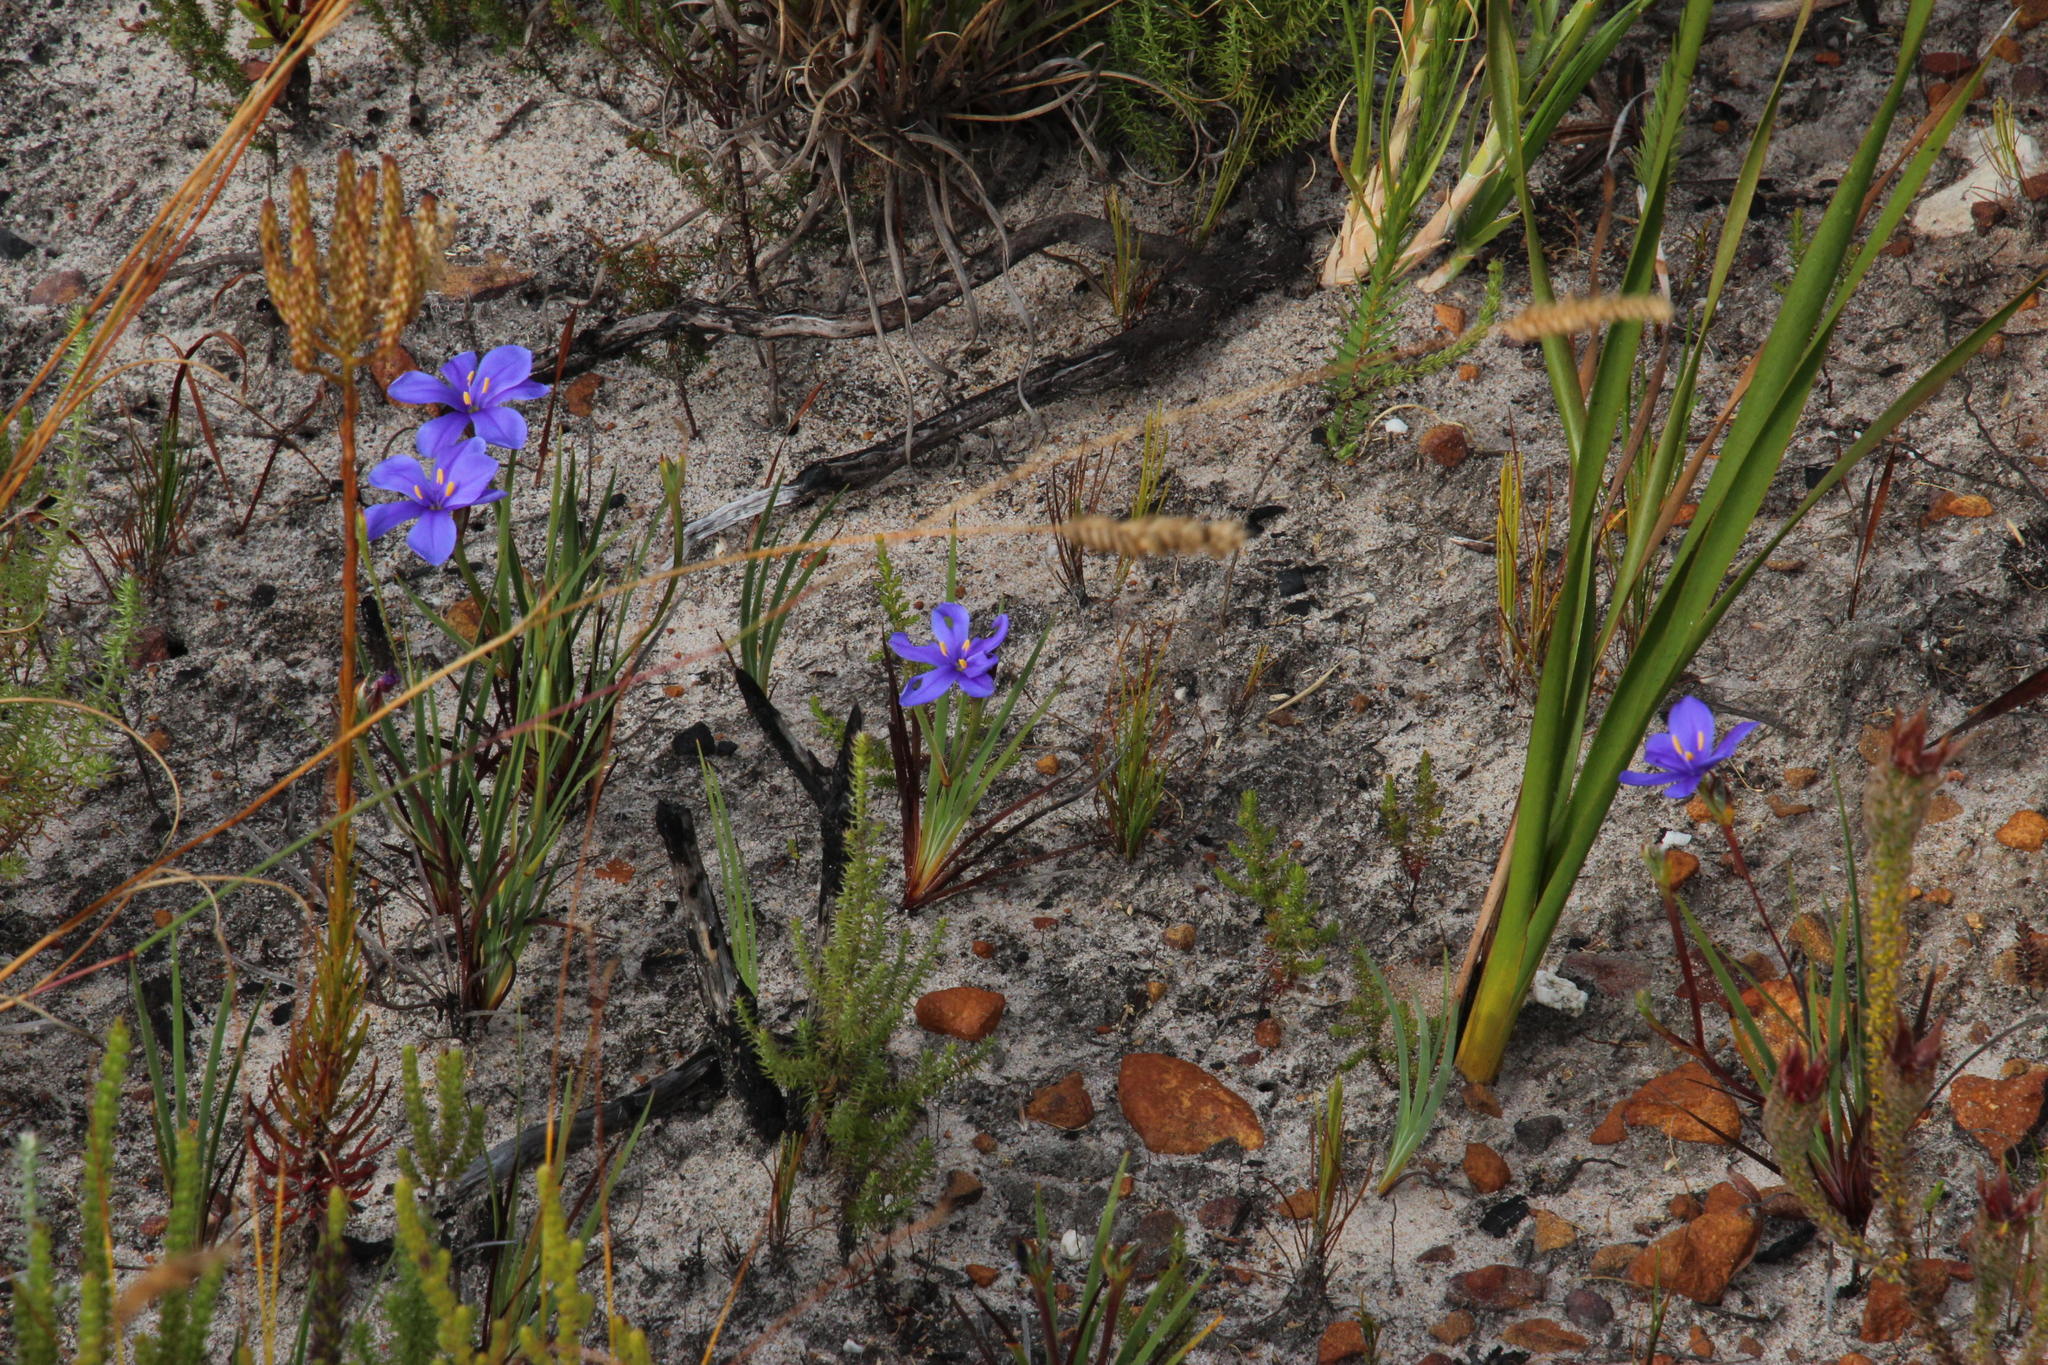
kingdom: Plantae
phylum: Tracheophyta
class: Liliopsida
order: Asparagales
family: Iridaceae
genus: Aristea
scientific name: Aristea africana
